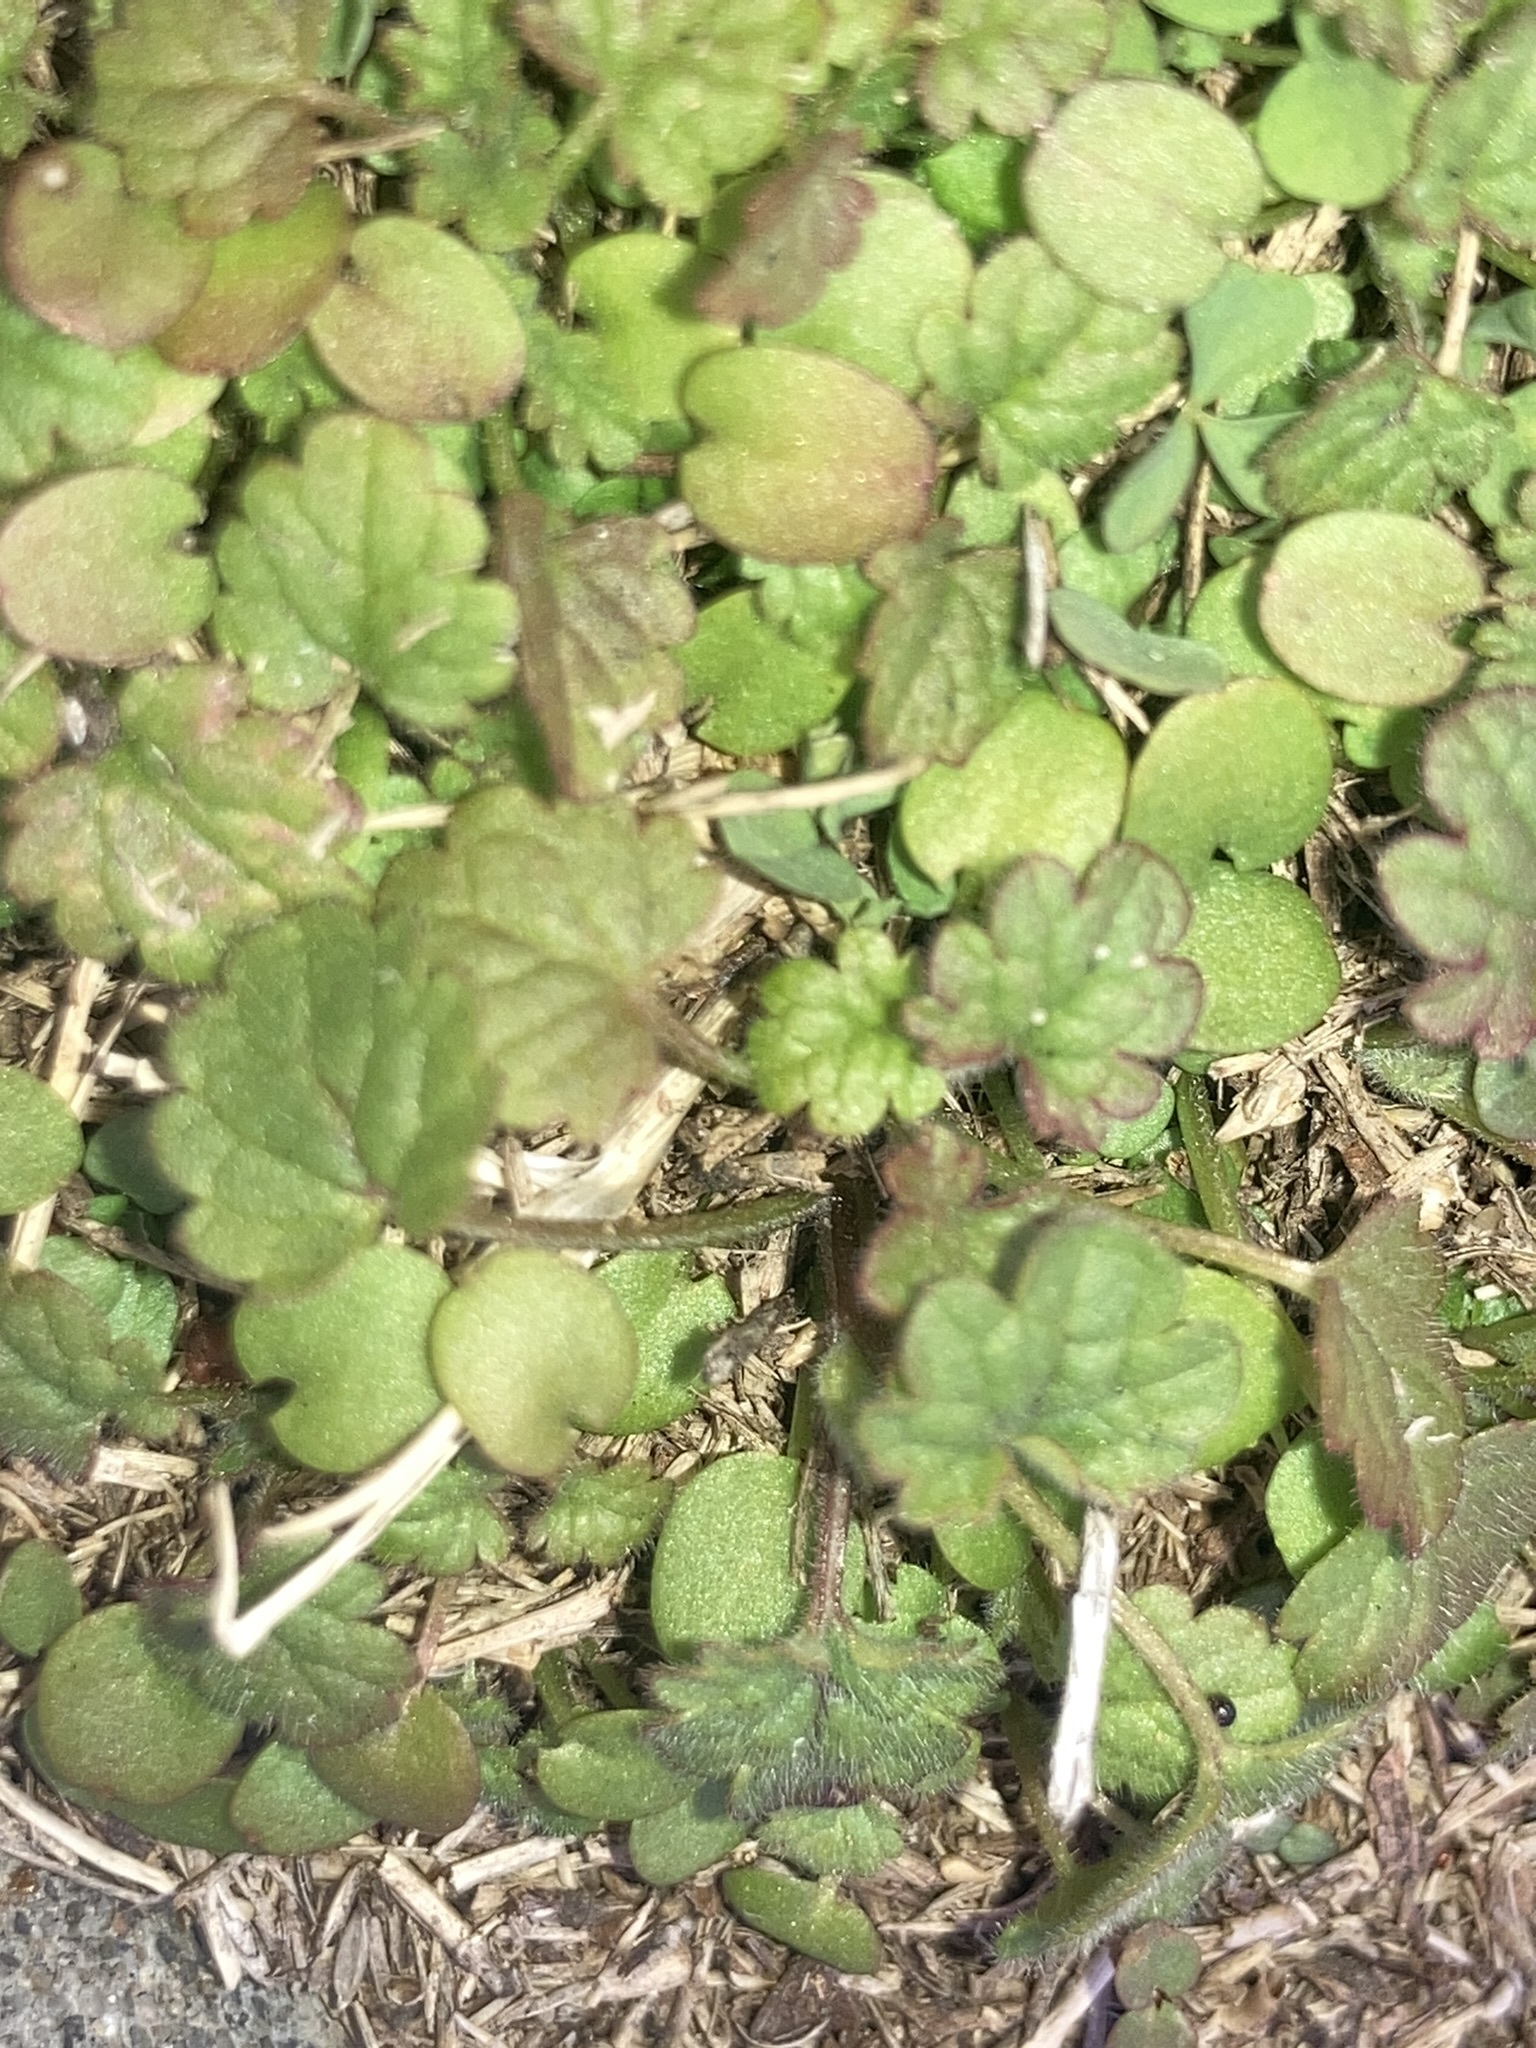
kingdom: Plantae
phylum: Tracheophyta
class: Magnoliopsida
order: Lamiales
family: Lamiaceae
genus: Lamium
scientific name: Lamium amplexicaule
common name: Henbit dead-nettle
